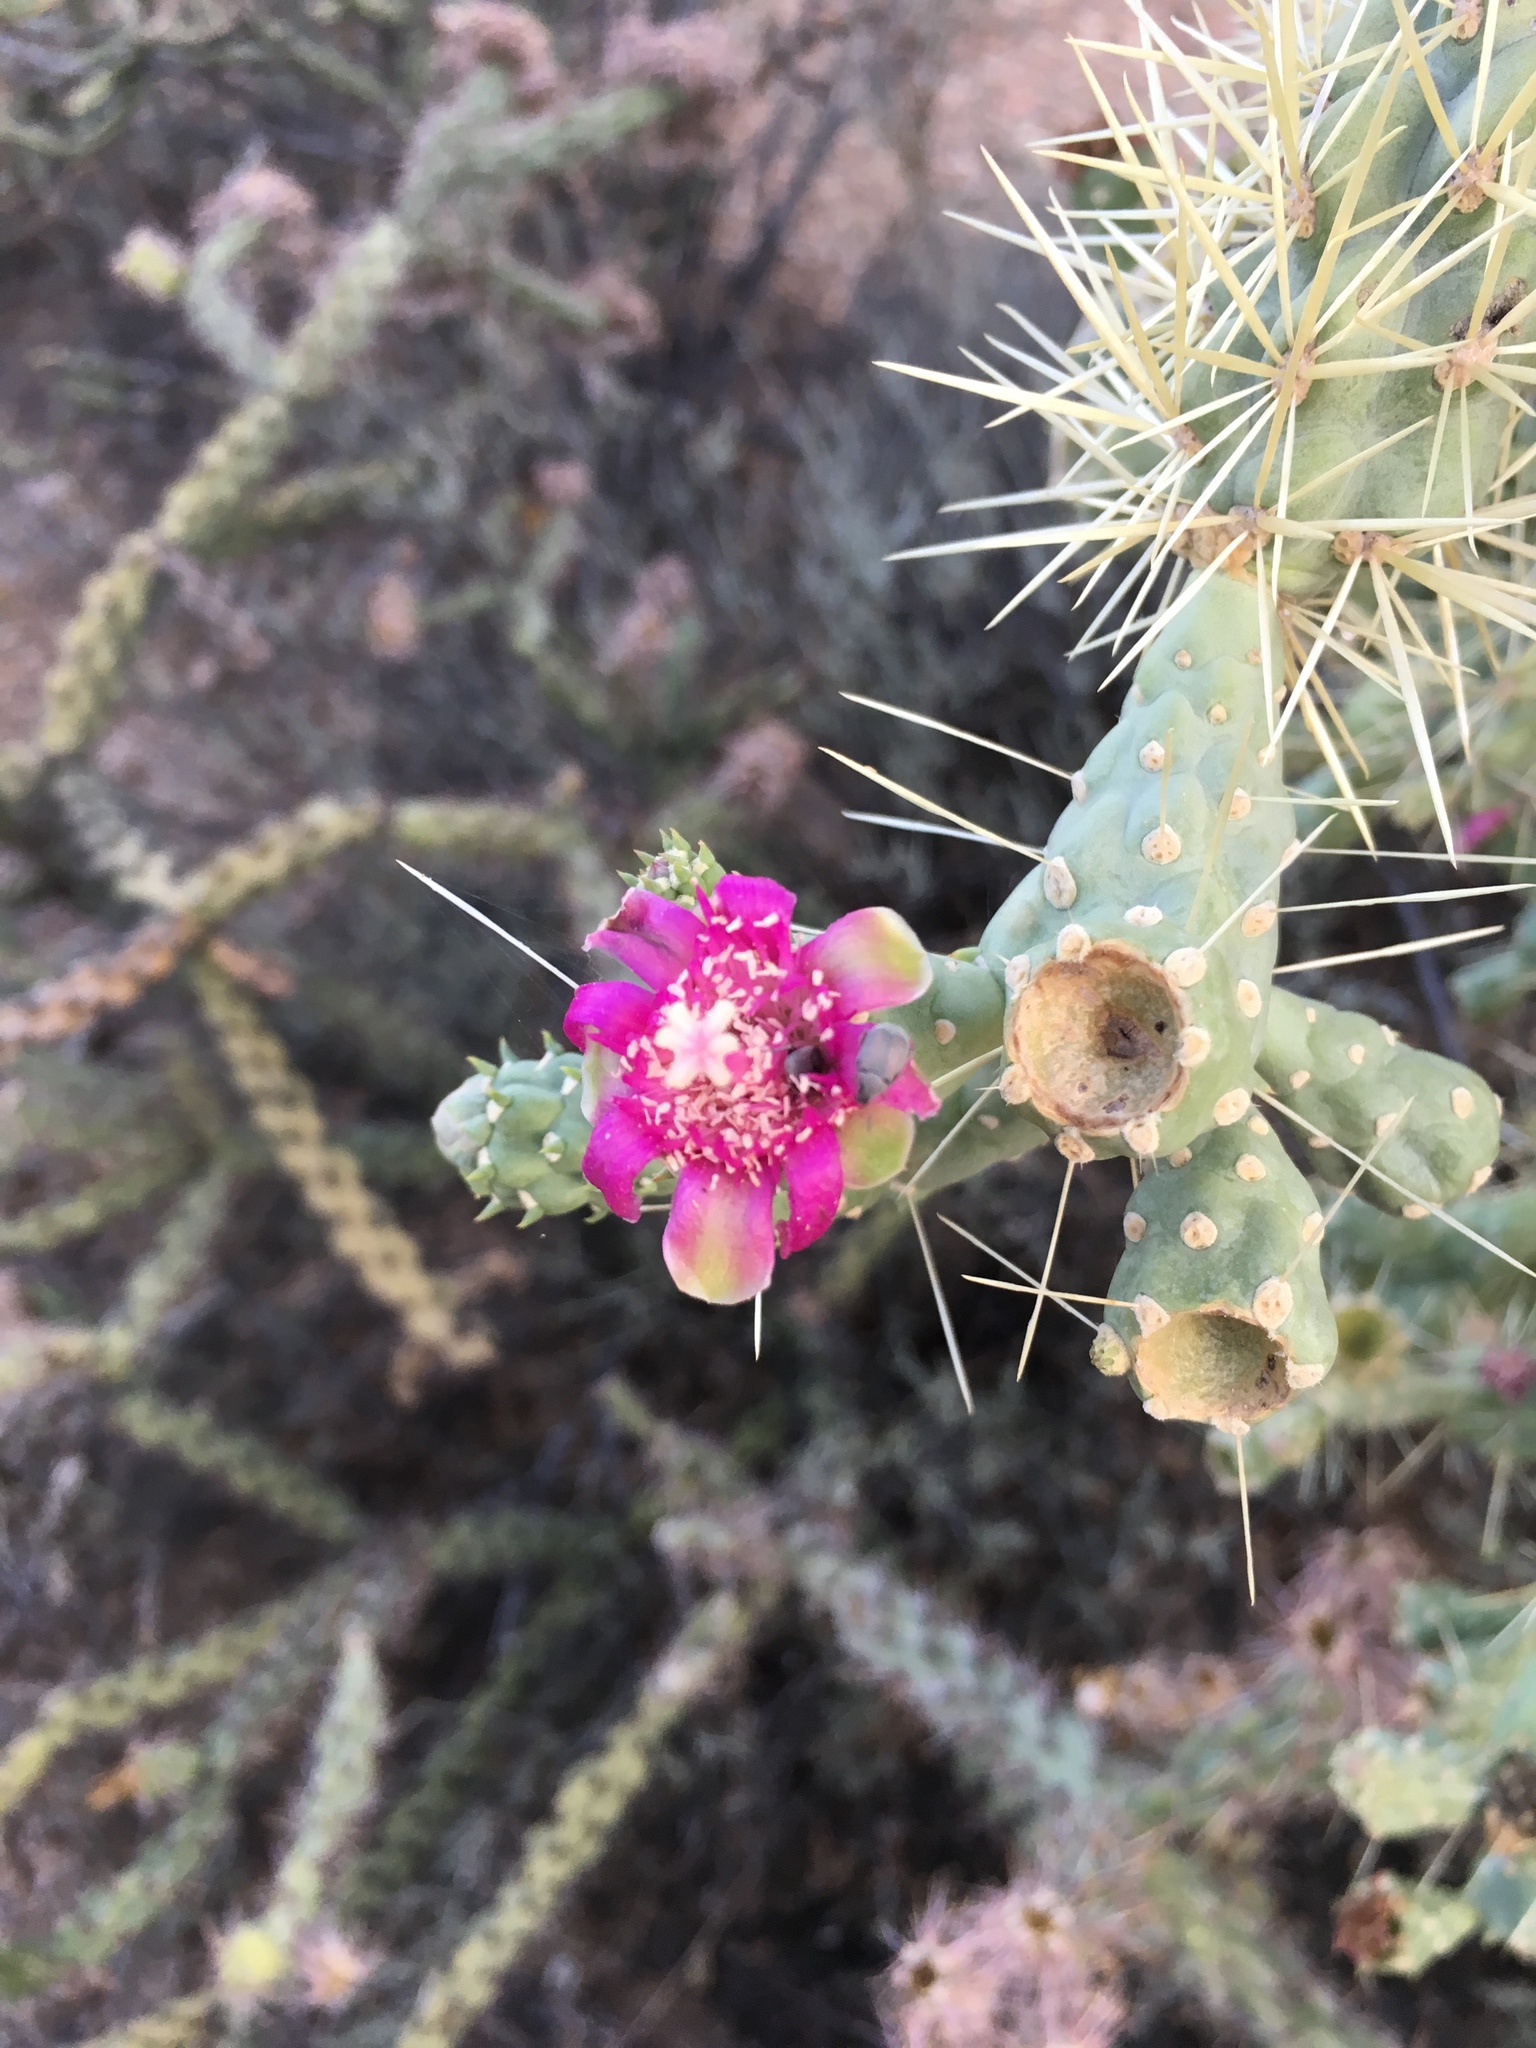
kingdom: Plantae
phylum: Tracheophyta
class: Magnoliopsida
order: Caryophyllales
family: Cactaceae
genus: Cylindropuntia
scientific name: Cylindropuntia fulgida
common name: Jumping cholla
